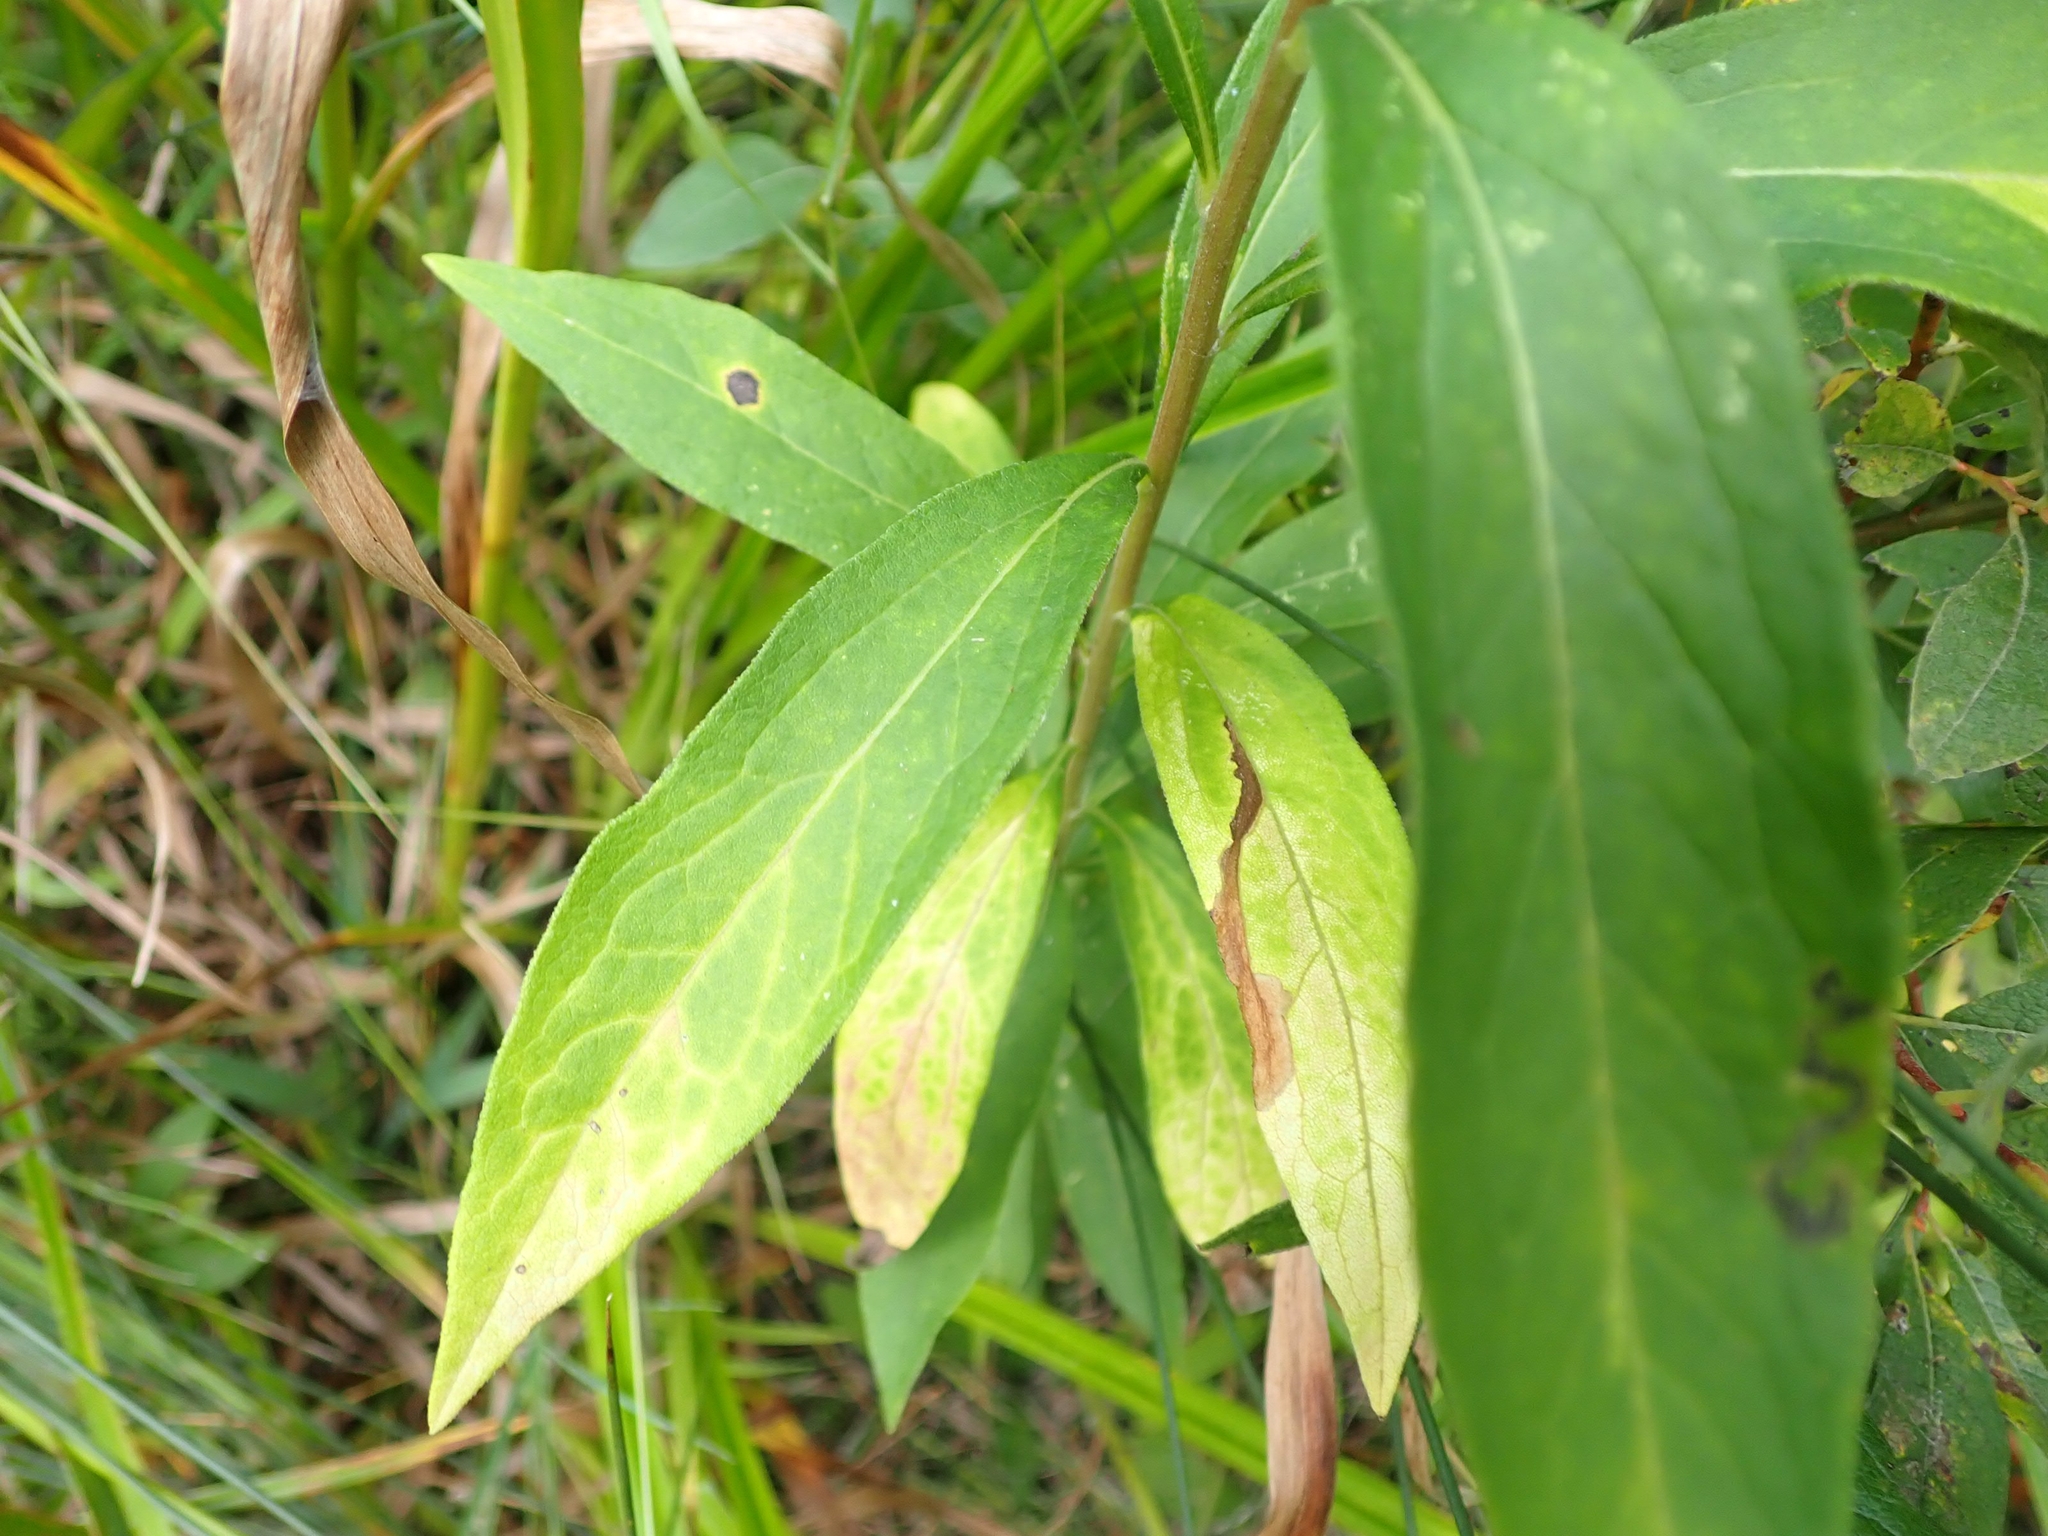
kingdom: Plantae
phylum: Tracheophyta
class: Magnoliopsida
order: Asterales
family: Asteraceae
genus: Doellingeria
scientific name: Doellingeria umbellata
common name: Flat-top white aster
